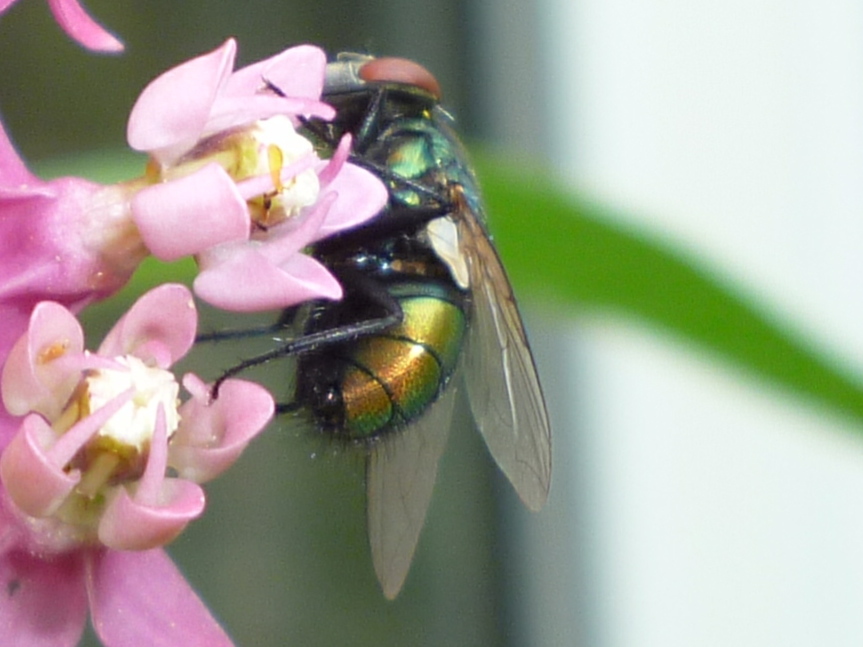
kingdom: Animalia
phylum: Arthropoda
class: Insecta
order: Diptera
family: Calliphoridae
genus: Lucilia
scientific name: Lucilia sericata
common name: Blow fly
